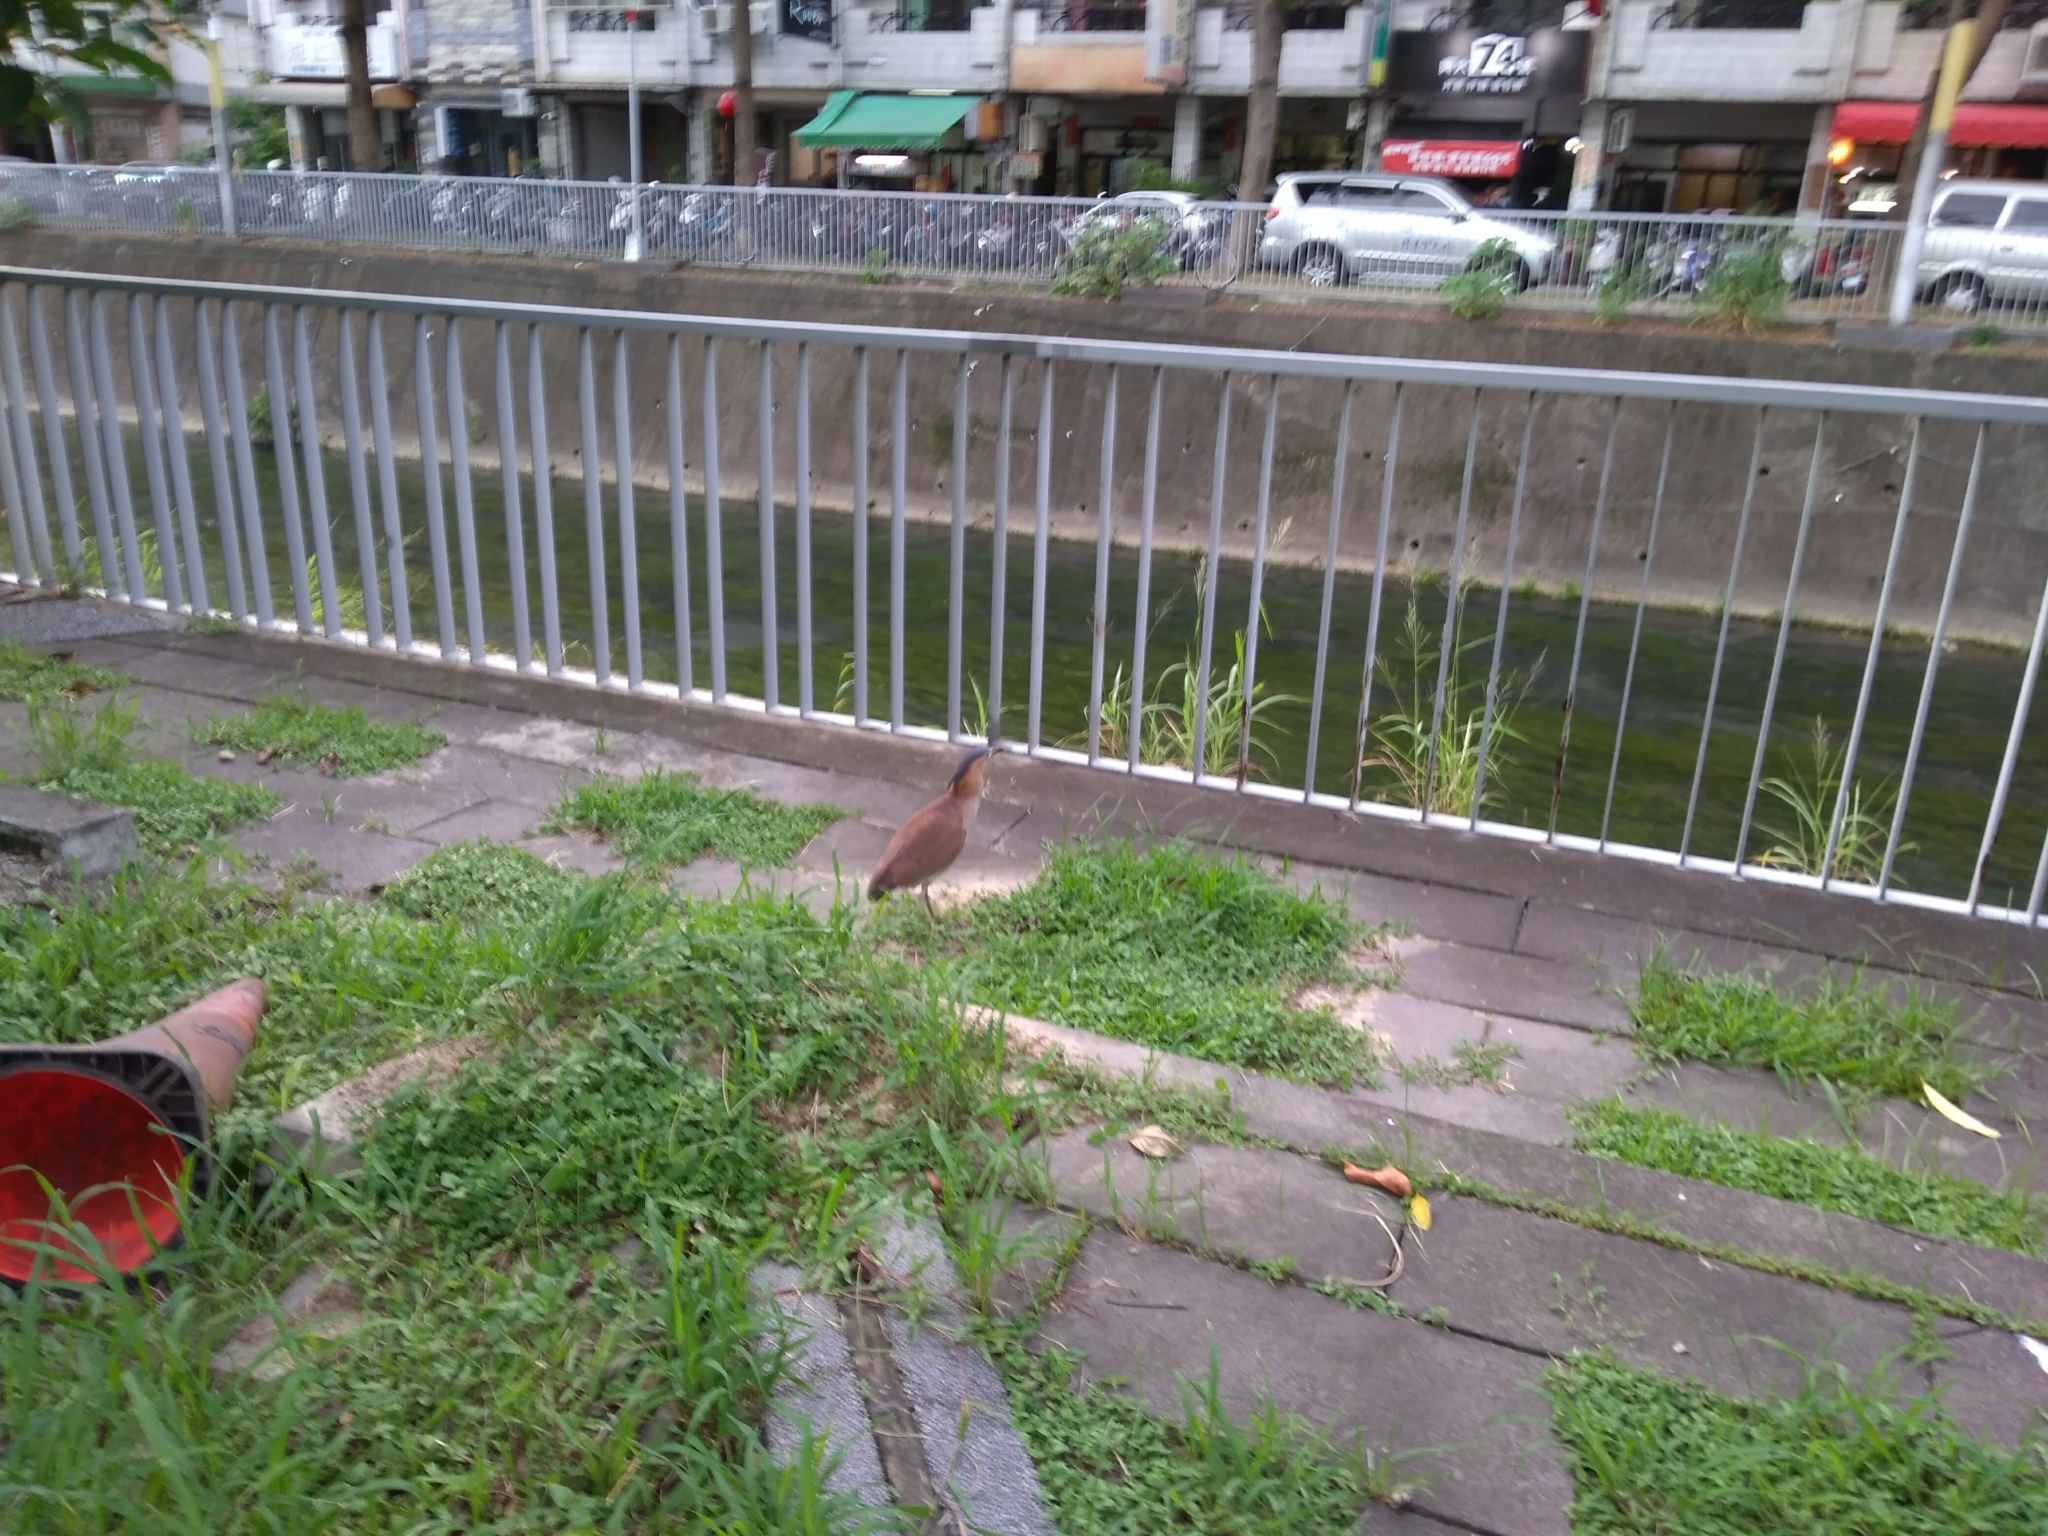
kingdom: Animalia
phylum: Chordata
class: Aves
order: Pelecaniformes
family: Ardeidae
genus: Gorsachius
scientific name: Gorsachius melanolophus
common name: Malayan night heron
